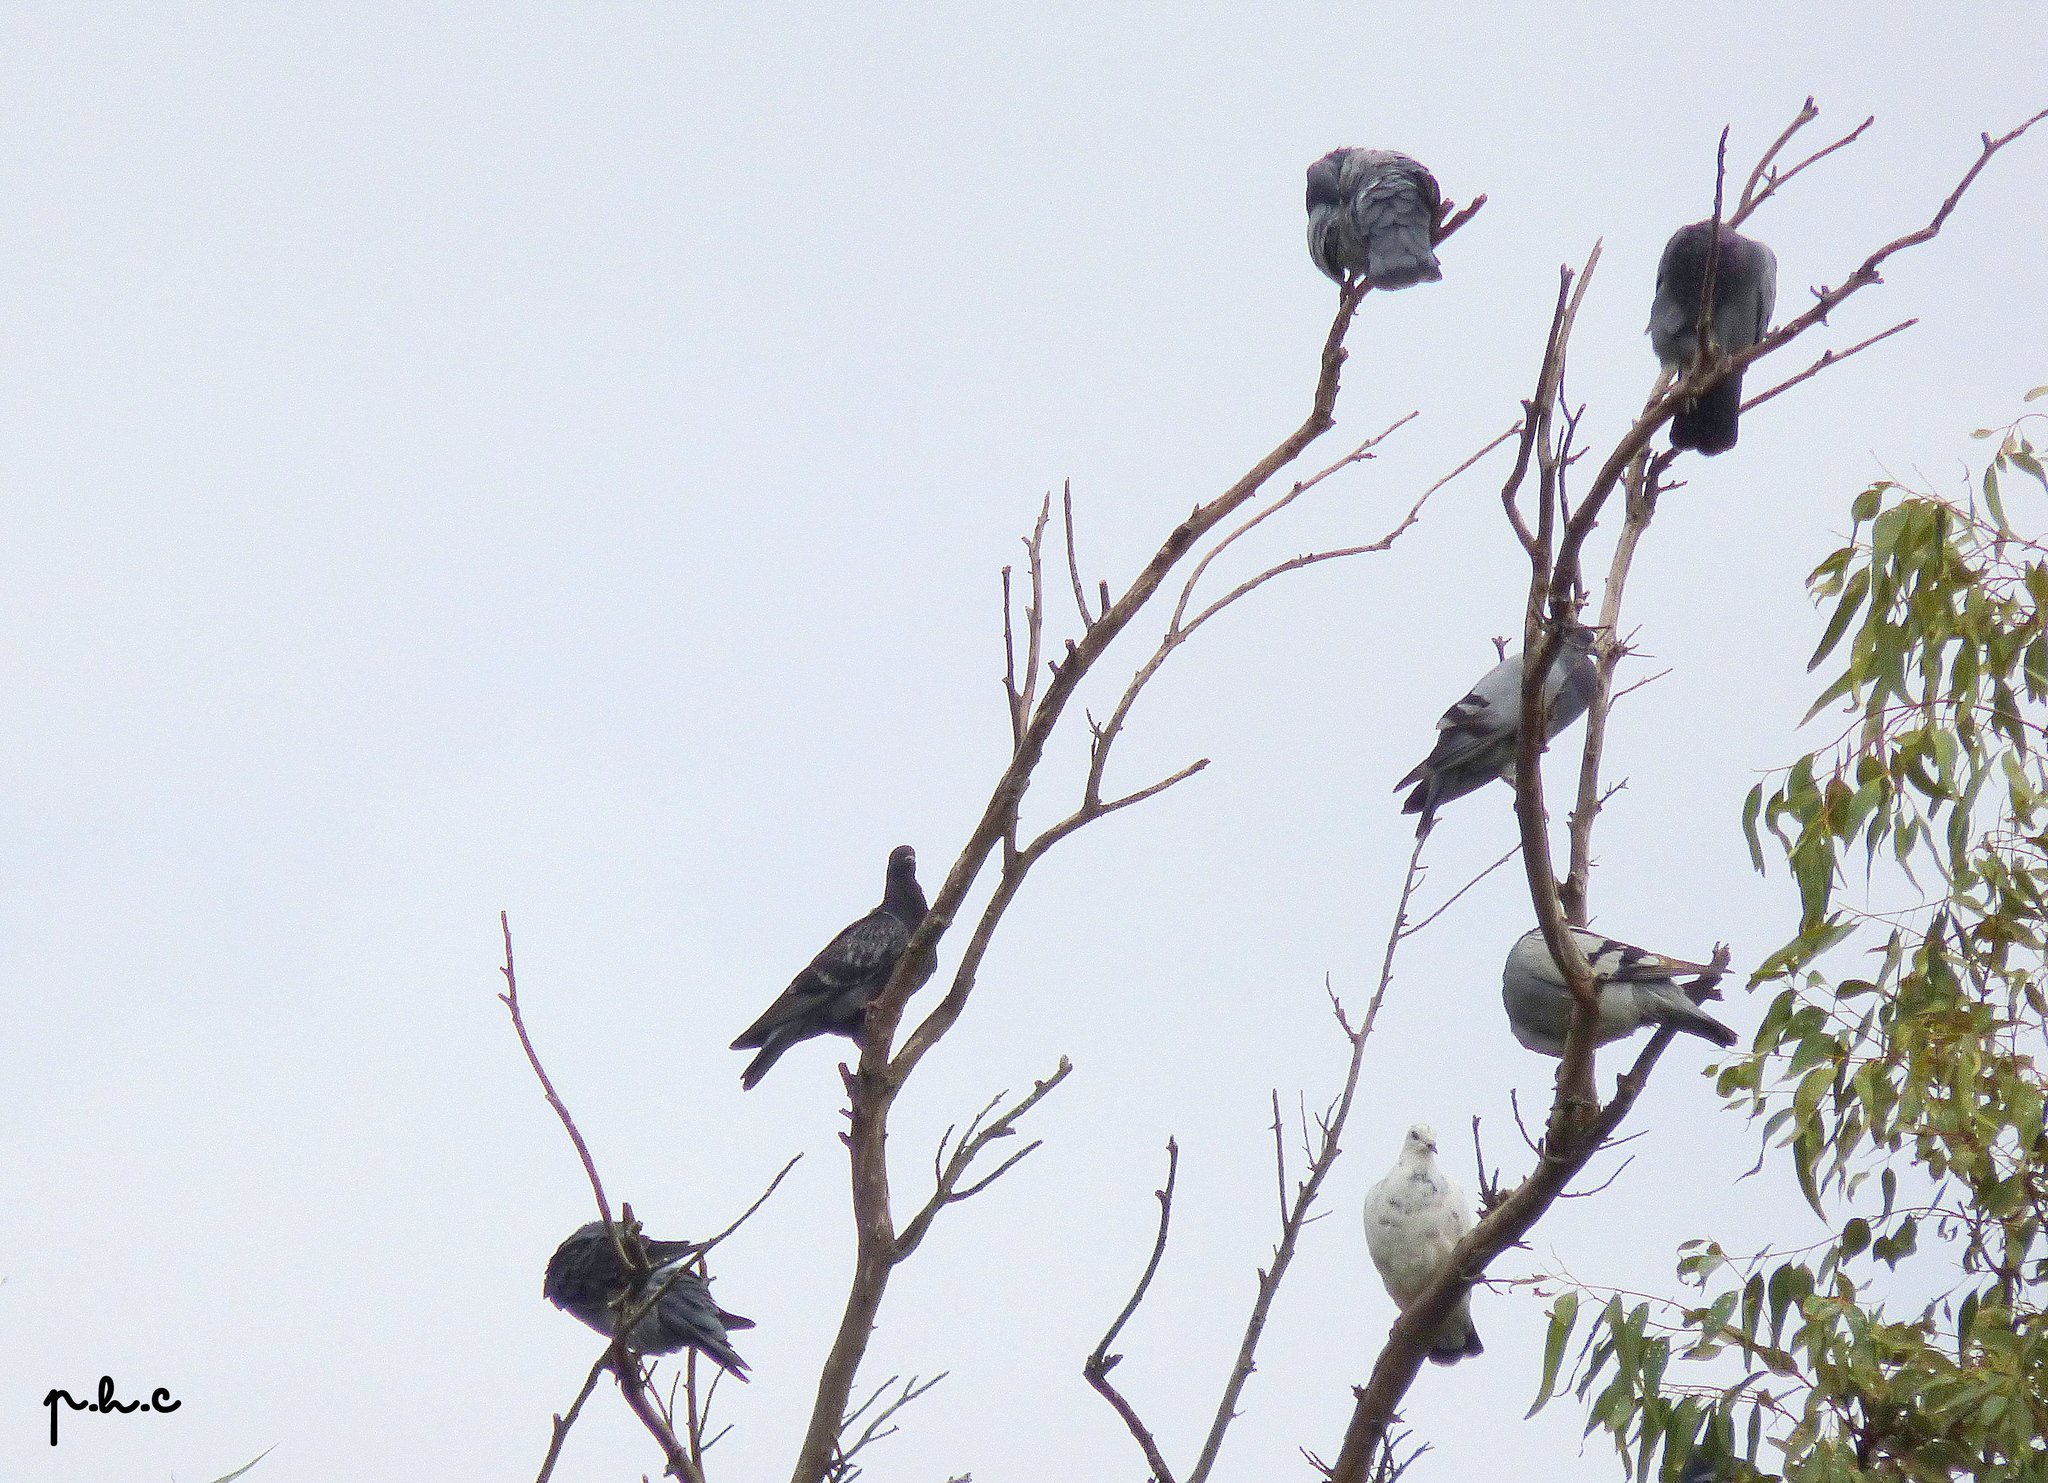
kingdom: Animalia
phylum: Chordata
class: Aves
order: Columbiformes
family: Columbidae
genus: Columba
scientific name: Columba livia
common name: Rock pigeon
